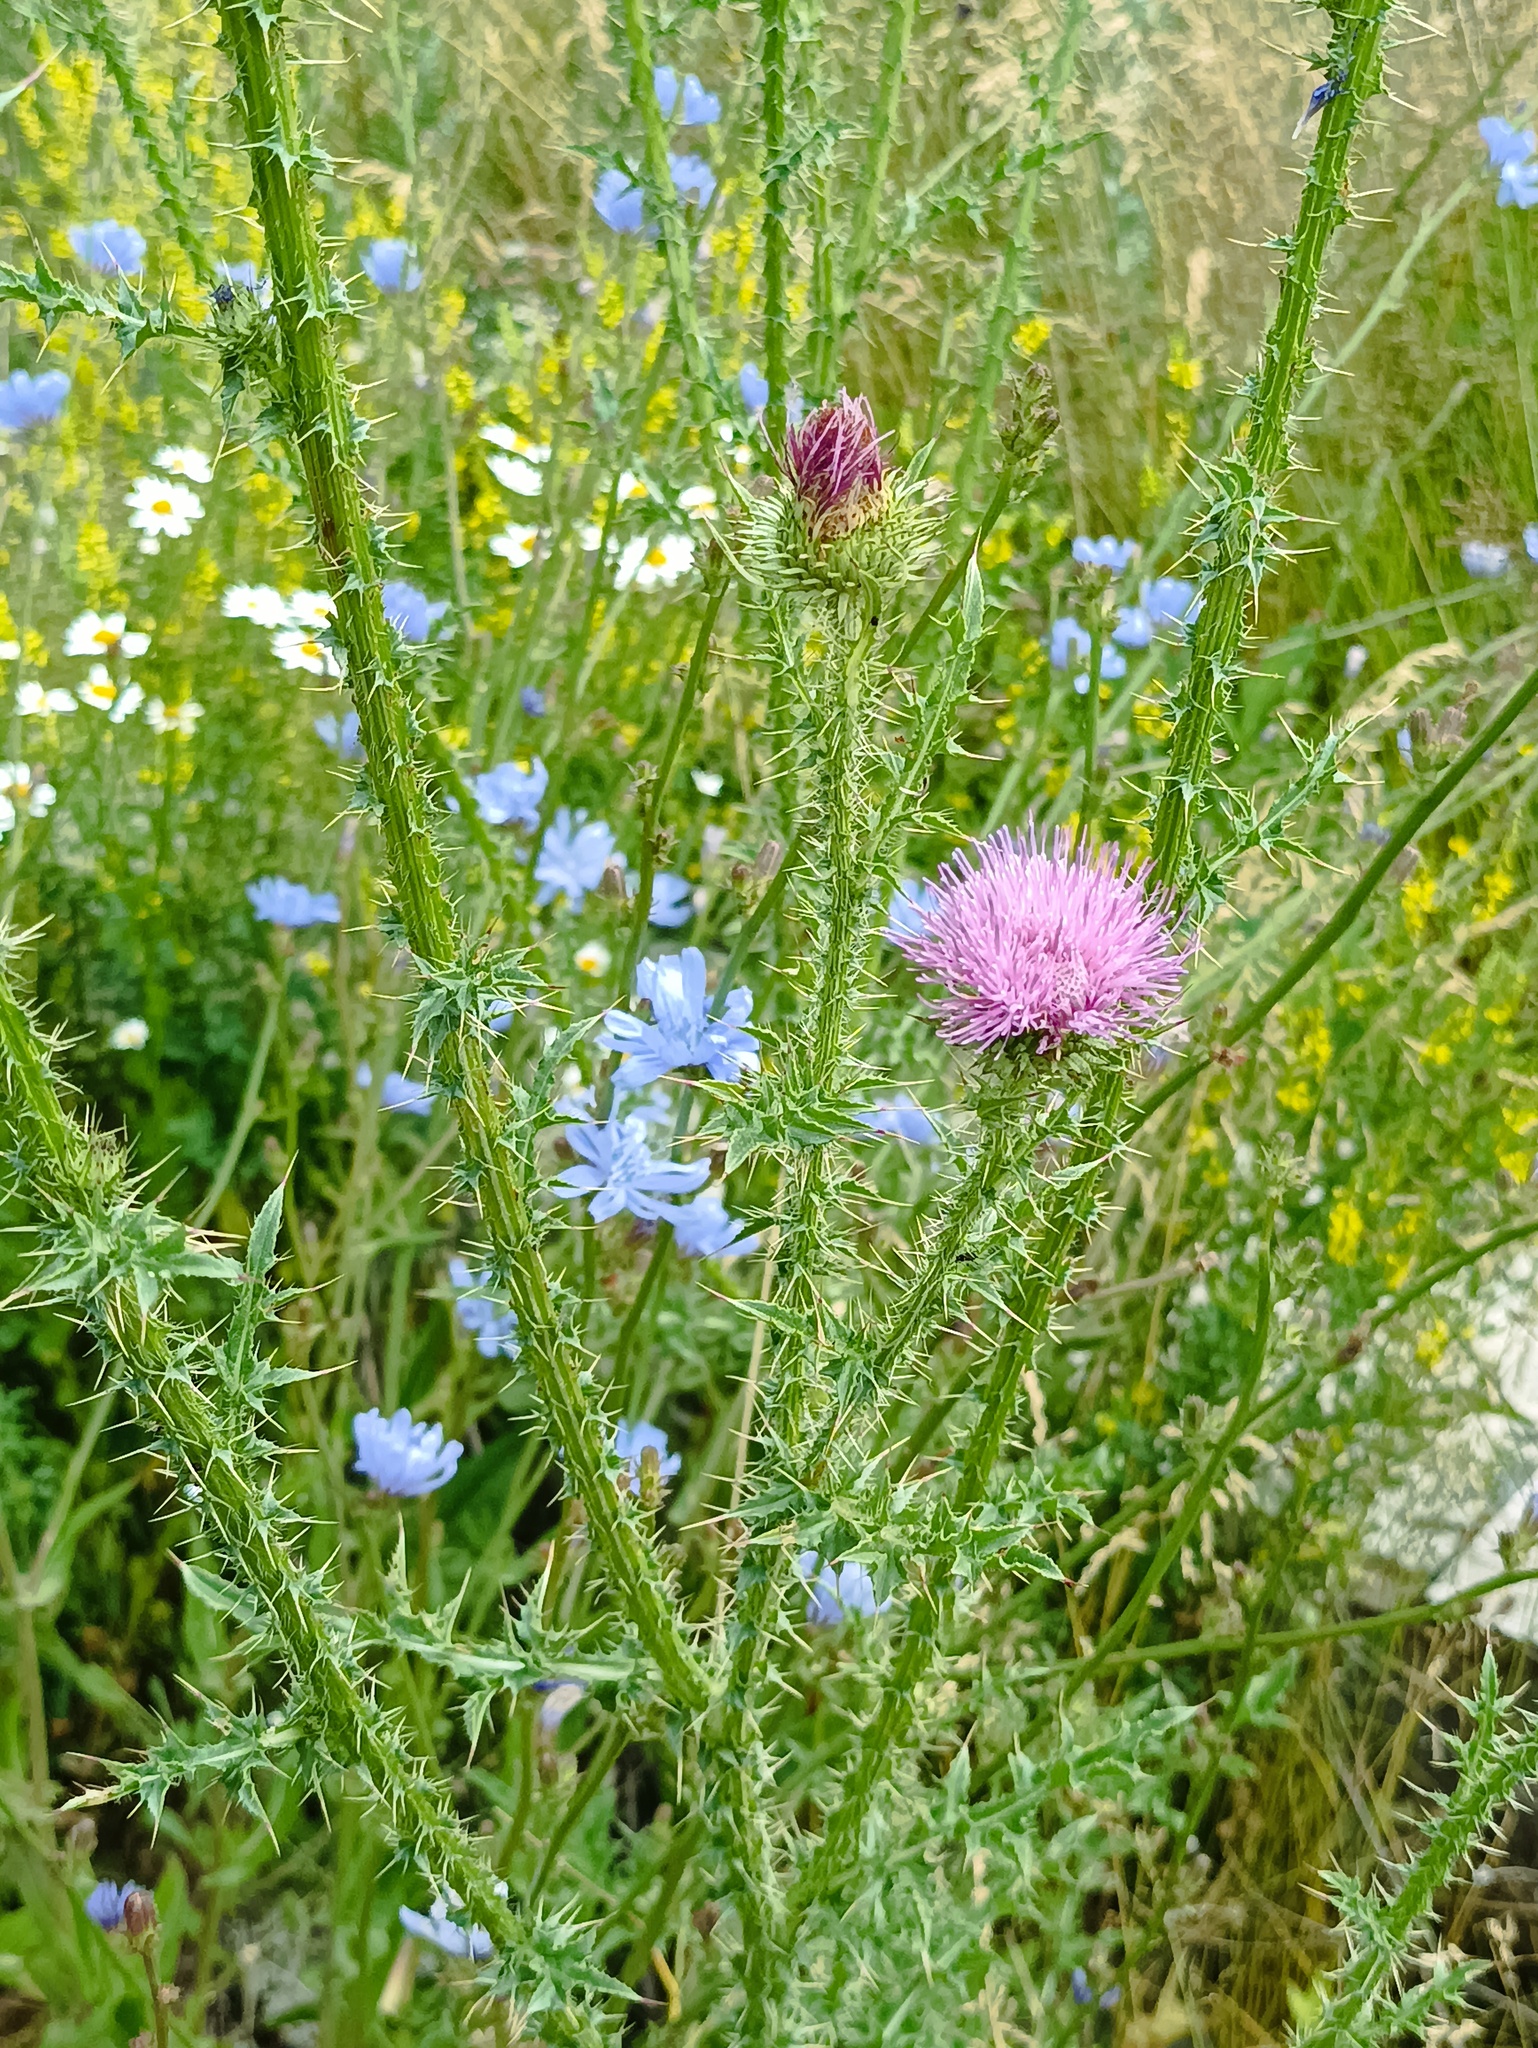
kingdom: Plantae
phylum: Tracheophyta
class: Magnoliopsida
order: Asterales
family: Asteraceae
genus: Carduus
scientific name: Carduus acanthoides
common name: Plumeless thistle
